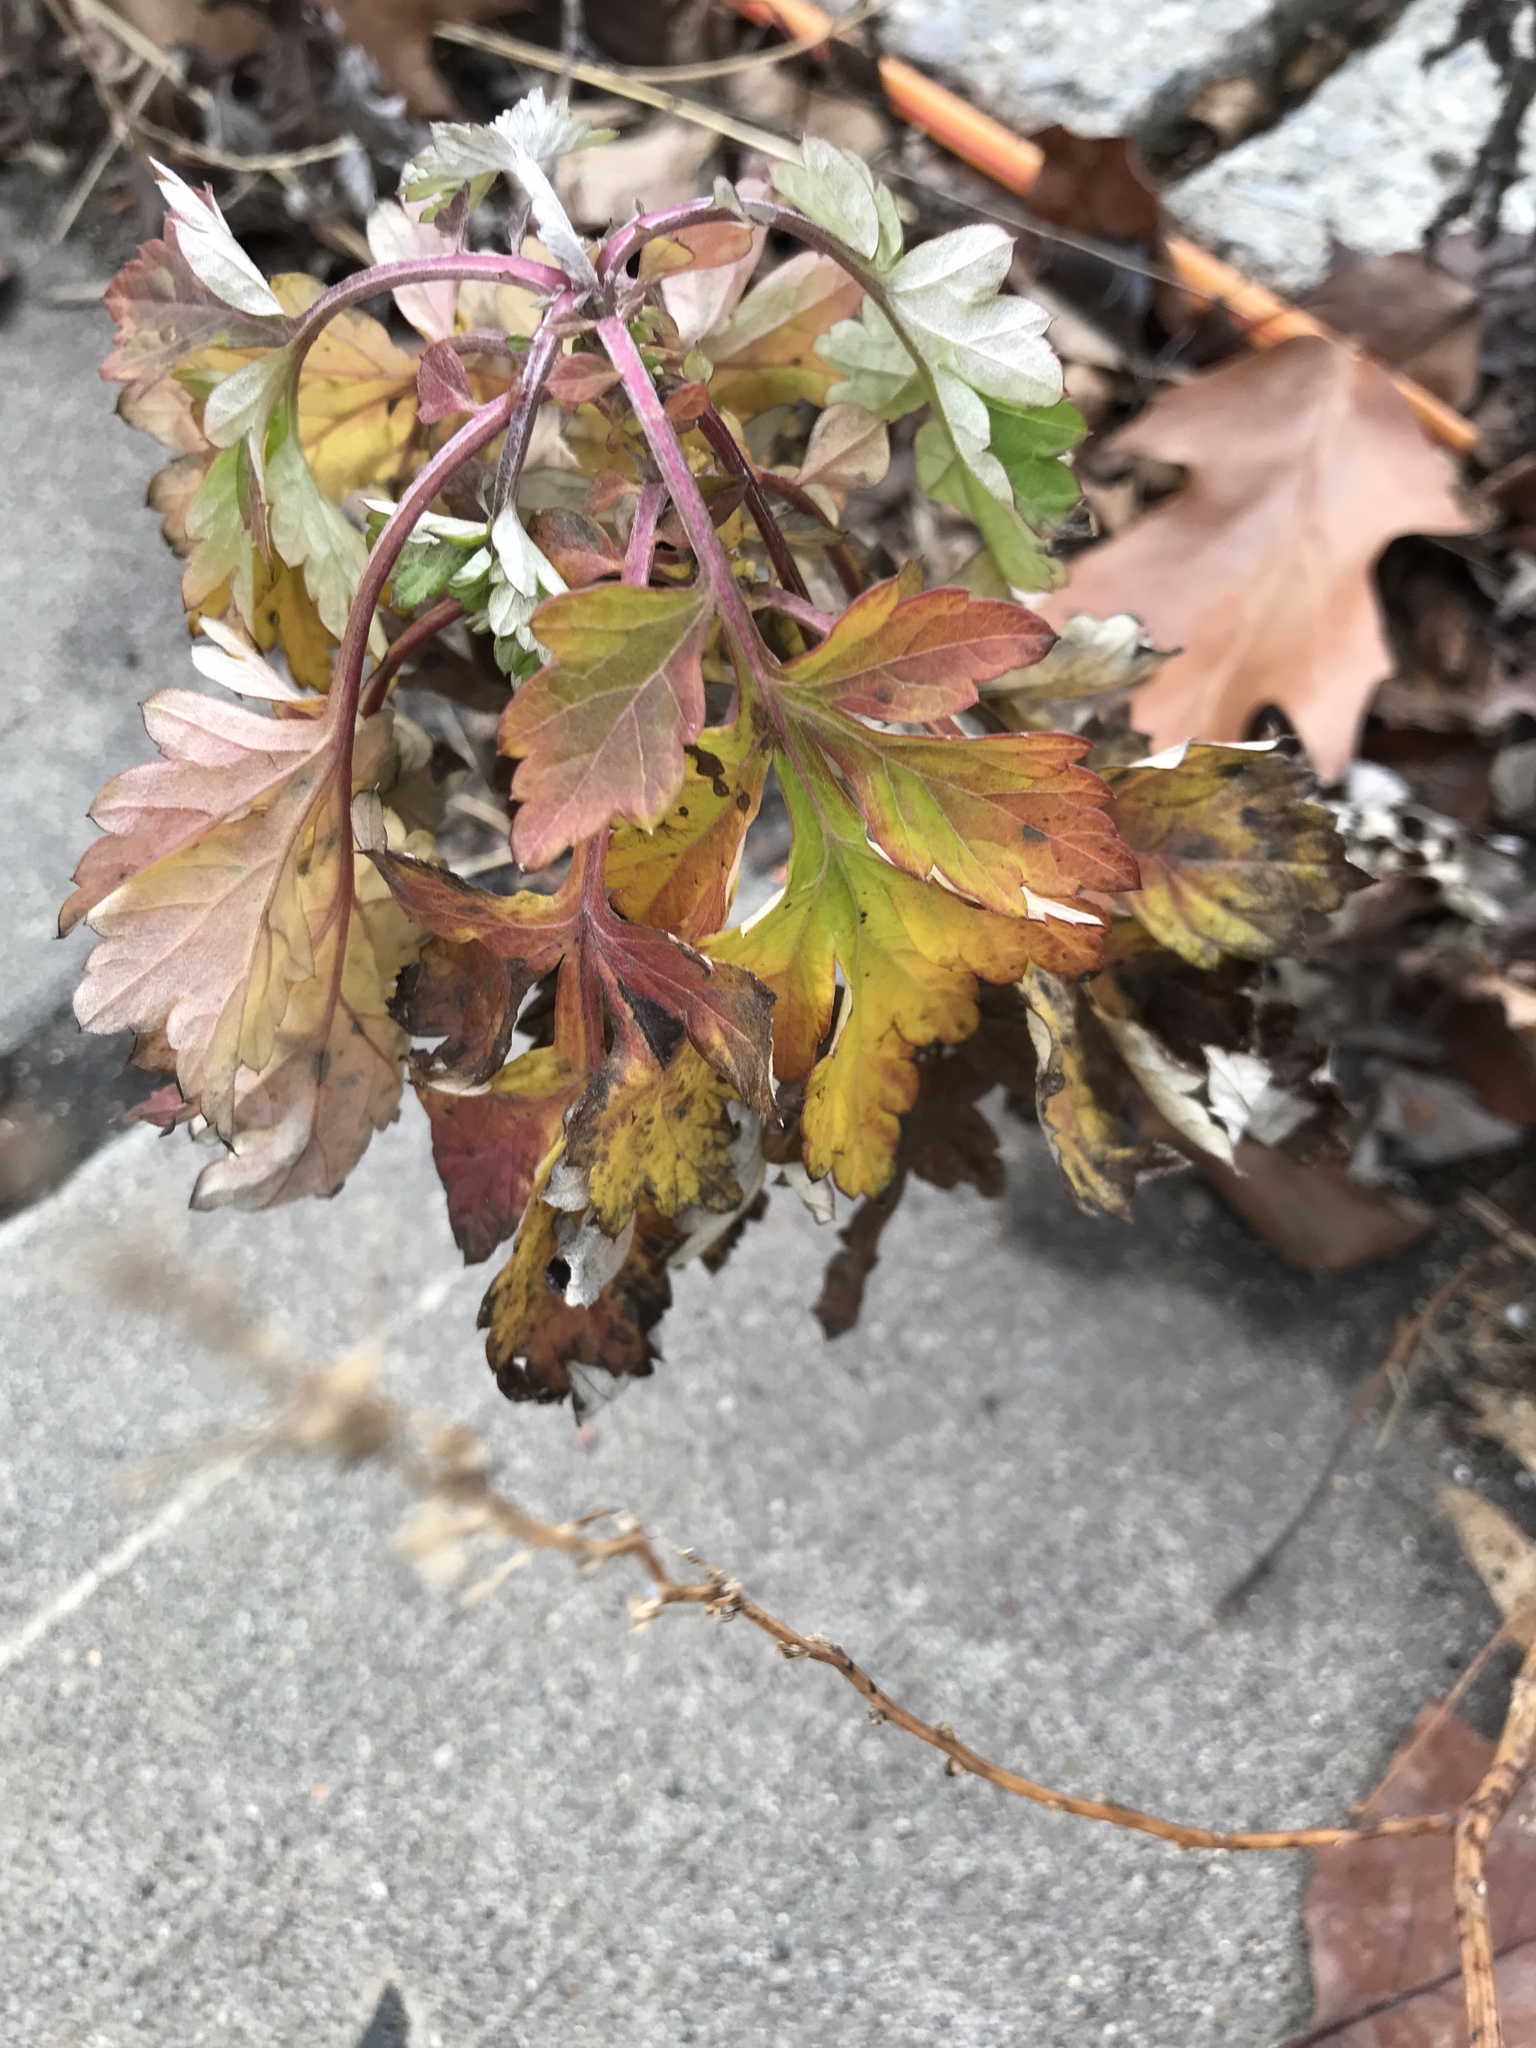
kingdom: Plantae
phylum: Tracheophyta
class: Magnoliopsida
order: Asterales
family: Asteraceae
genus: Artemisia
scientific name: Artemisia vulgaris
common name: Mugwort
